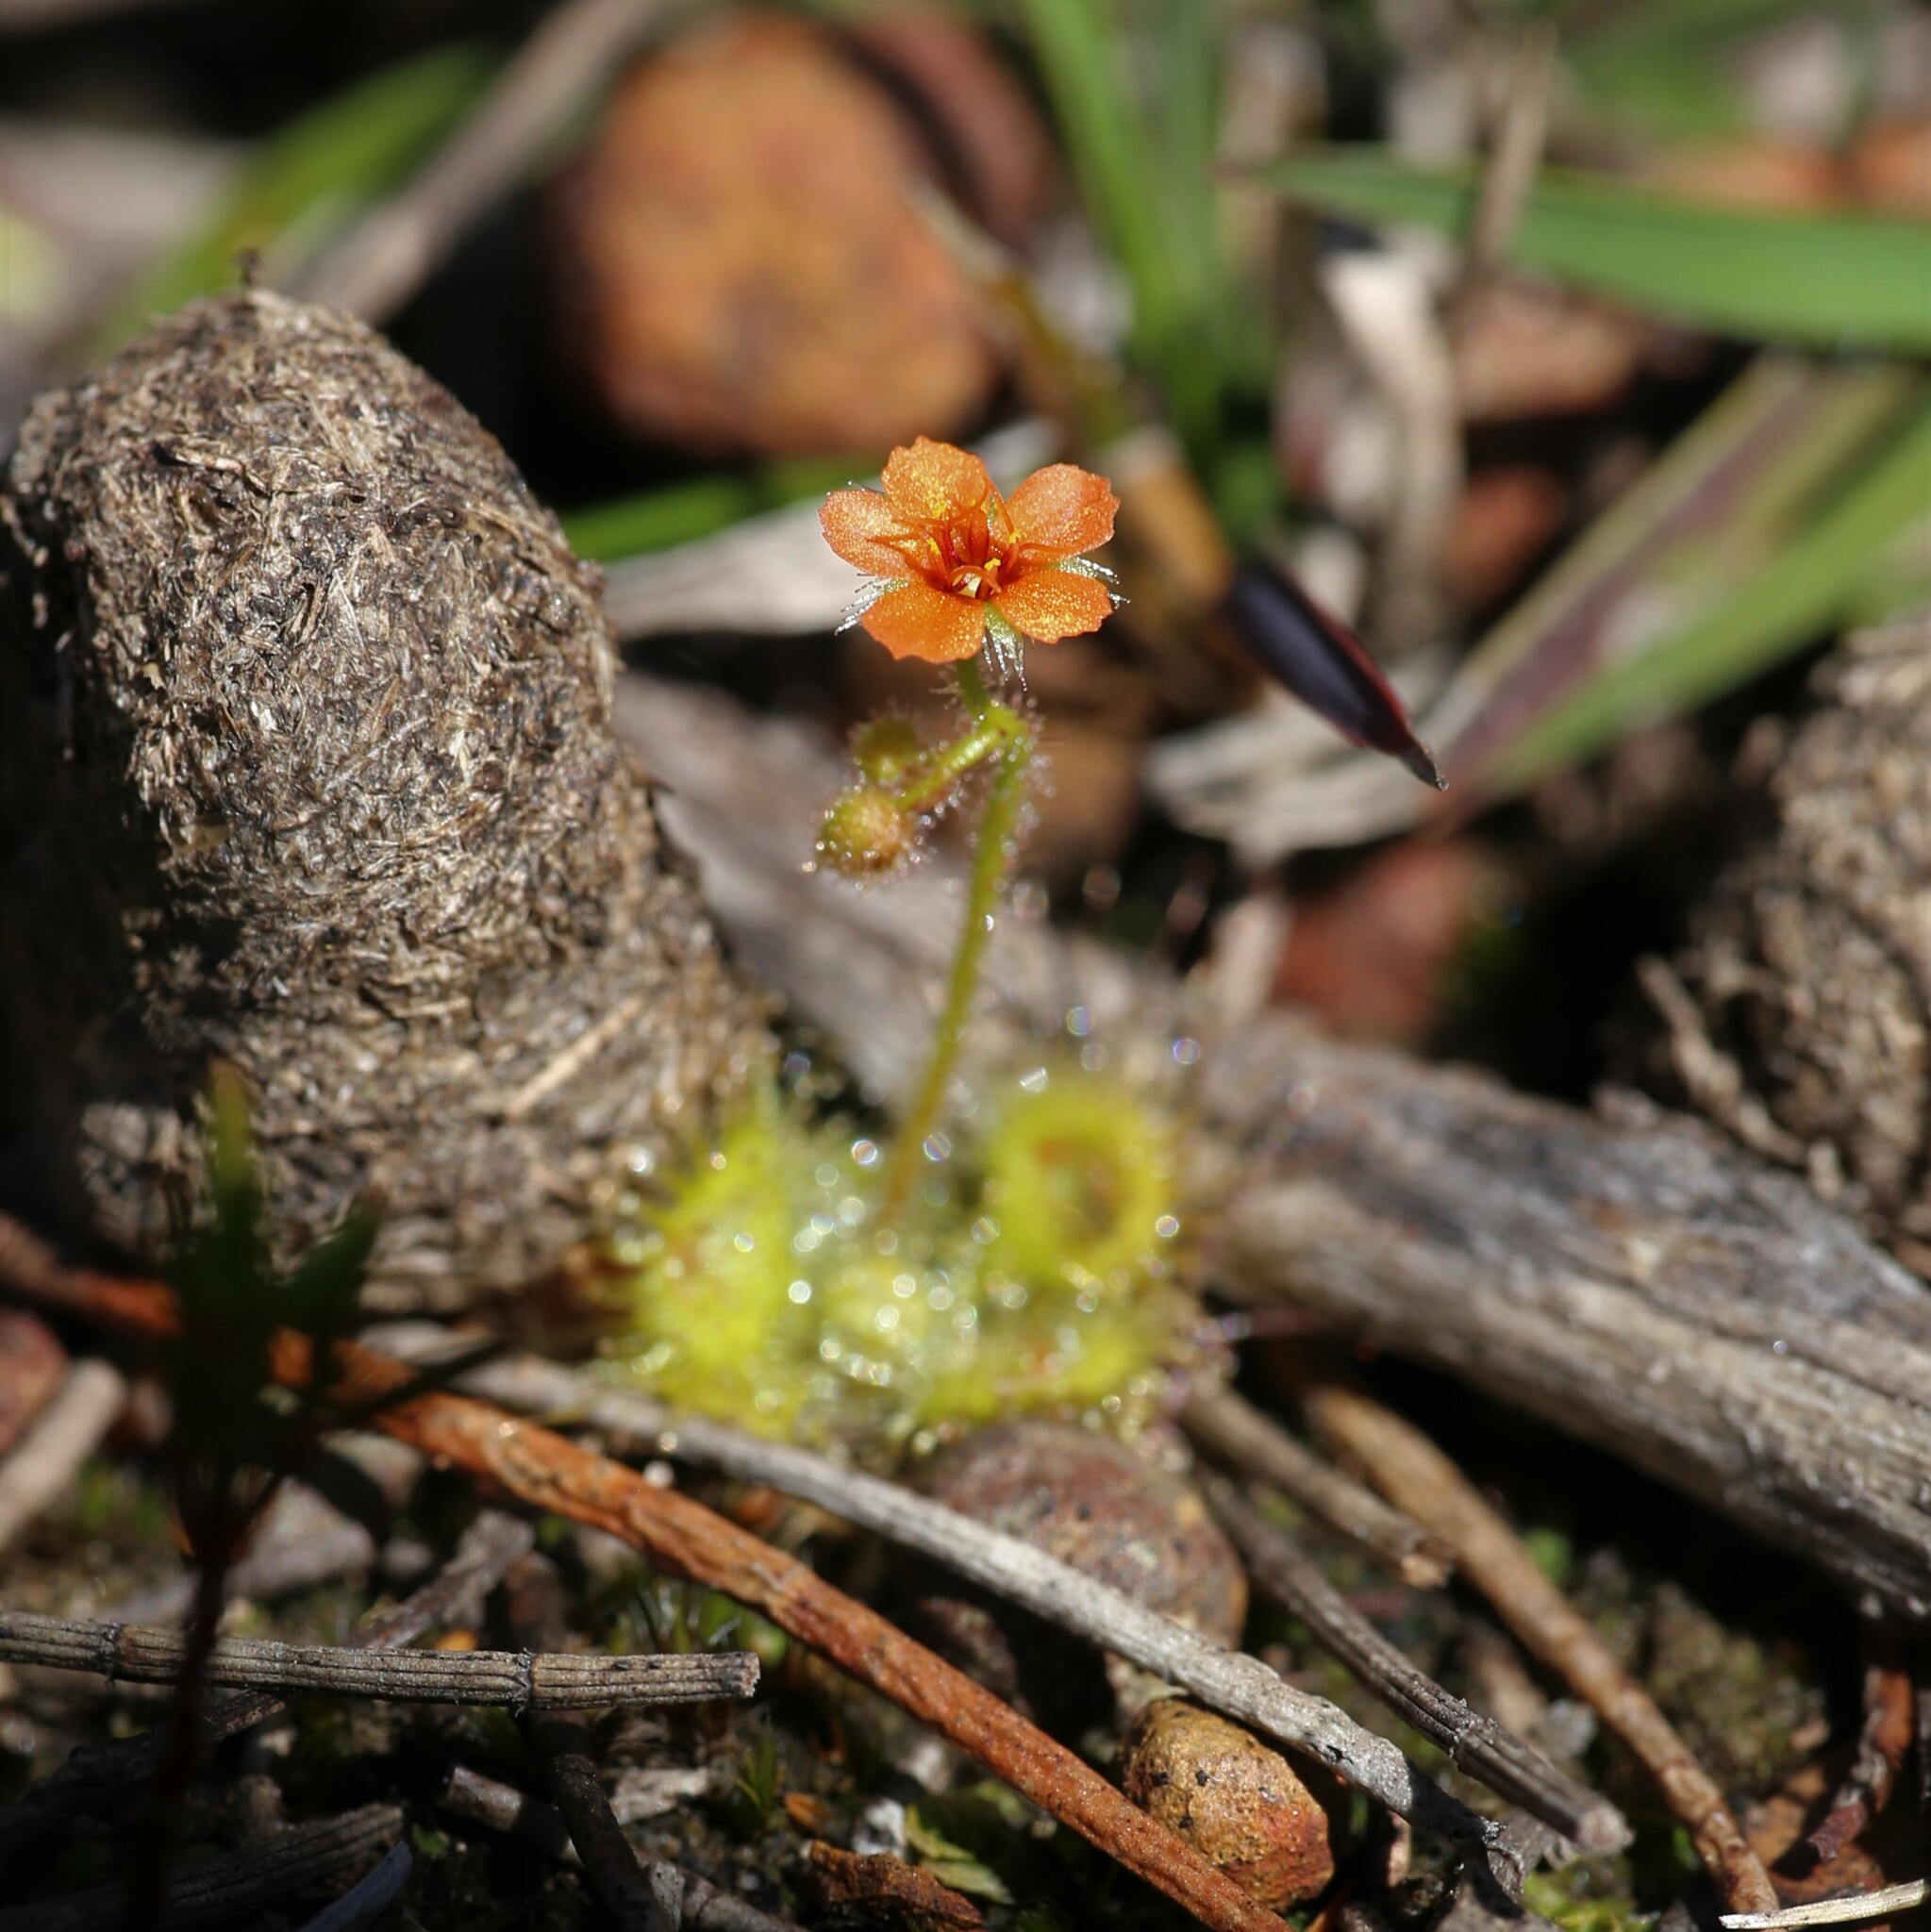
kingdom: Plantae
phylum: Tracheophyta
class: Magnoliopsida
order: Caryophyllales
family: Droseraceae
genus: Drosera
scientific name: Drosera glanduligera
